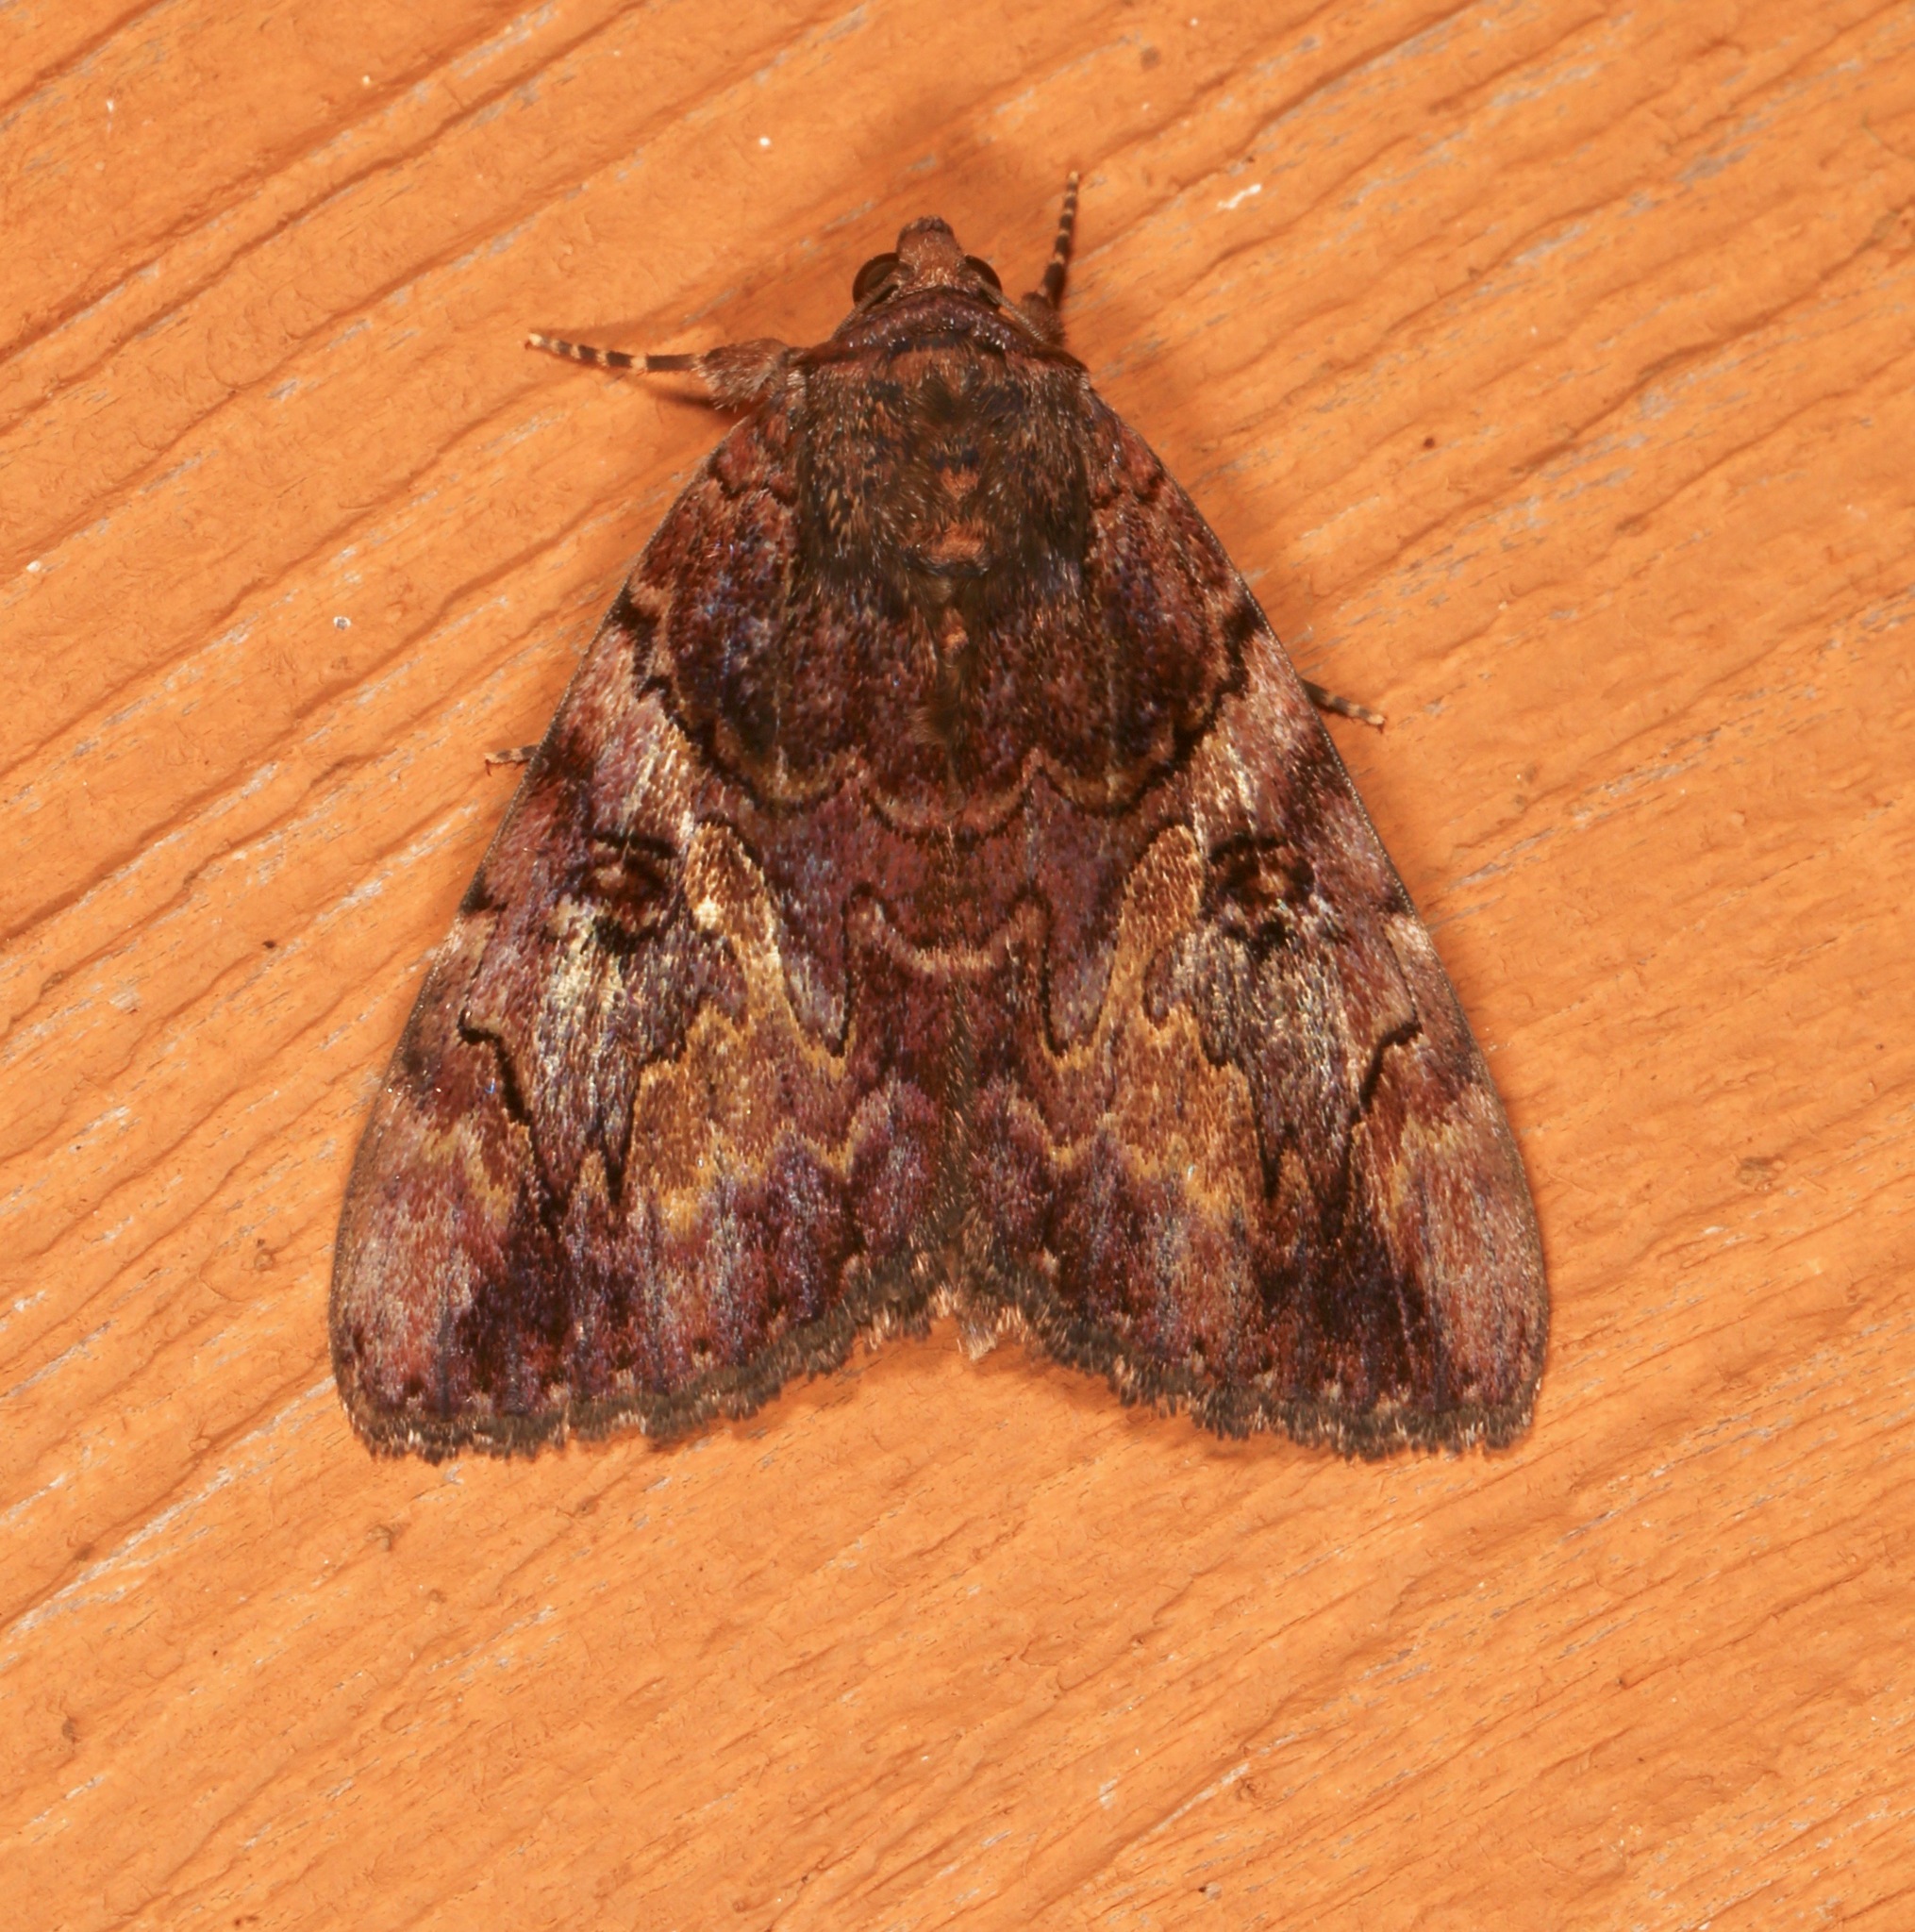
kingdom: Animalia
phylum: Arthropoda
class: Insecta
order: Lepidoptera
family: Erebidae
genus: Catocala
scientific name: Catocala muliercula
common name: The little wife underwing
